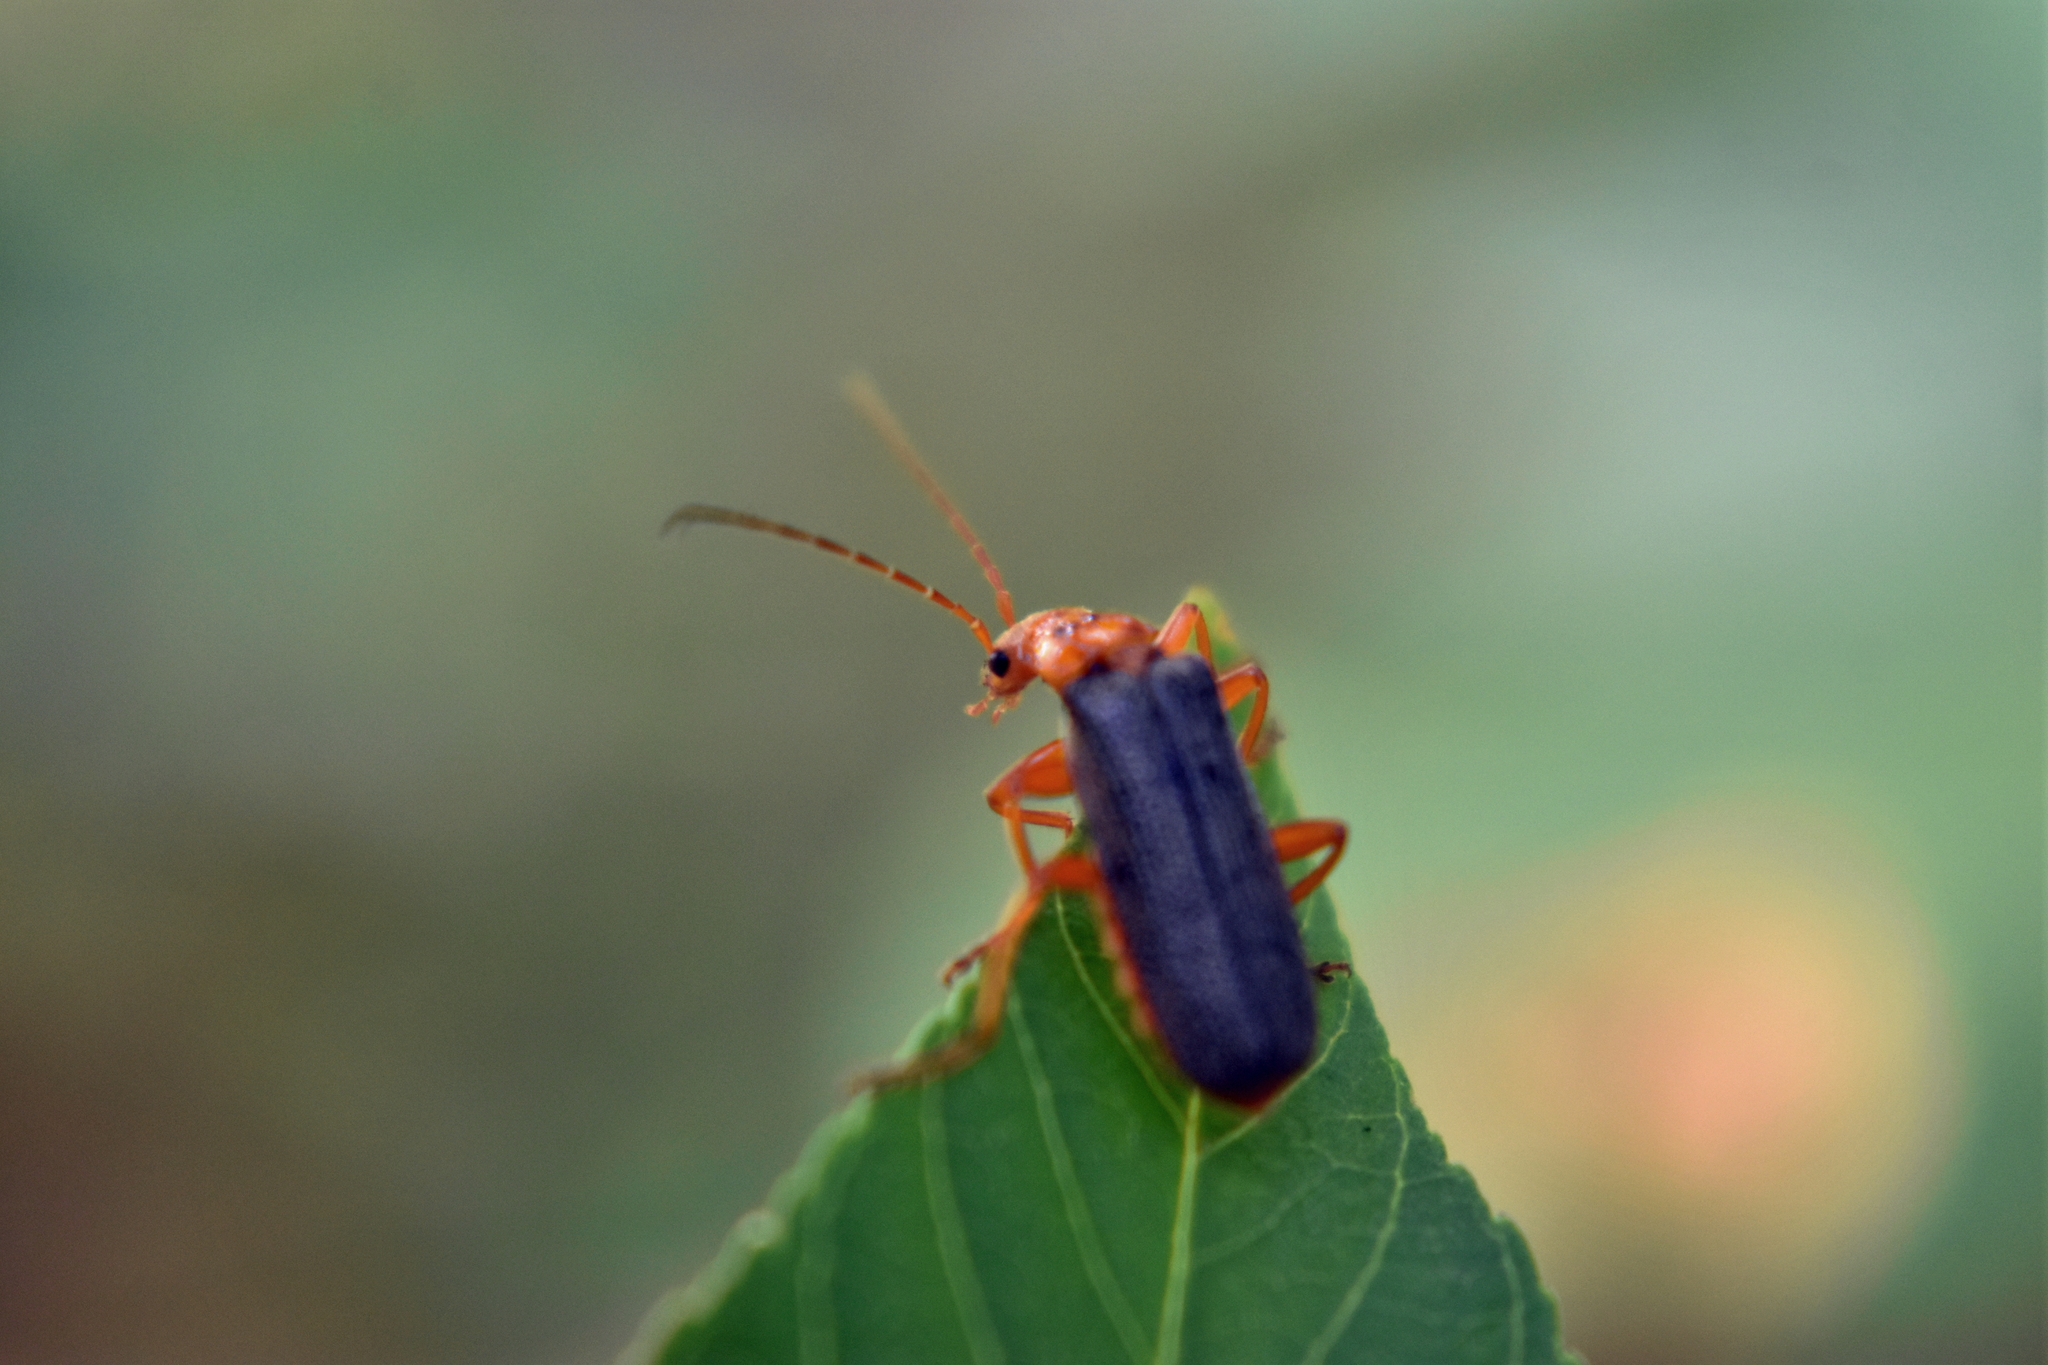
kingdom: Animalia
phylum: Arthropoda
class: Insecta
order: Coleoptera
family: Cantharidae
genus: Cultellunguis
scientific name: Cultellunguis americanus
